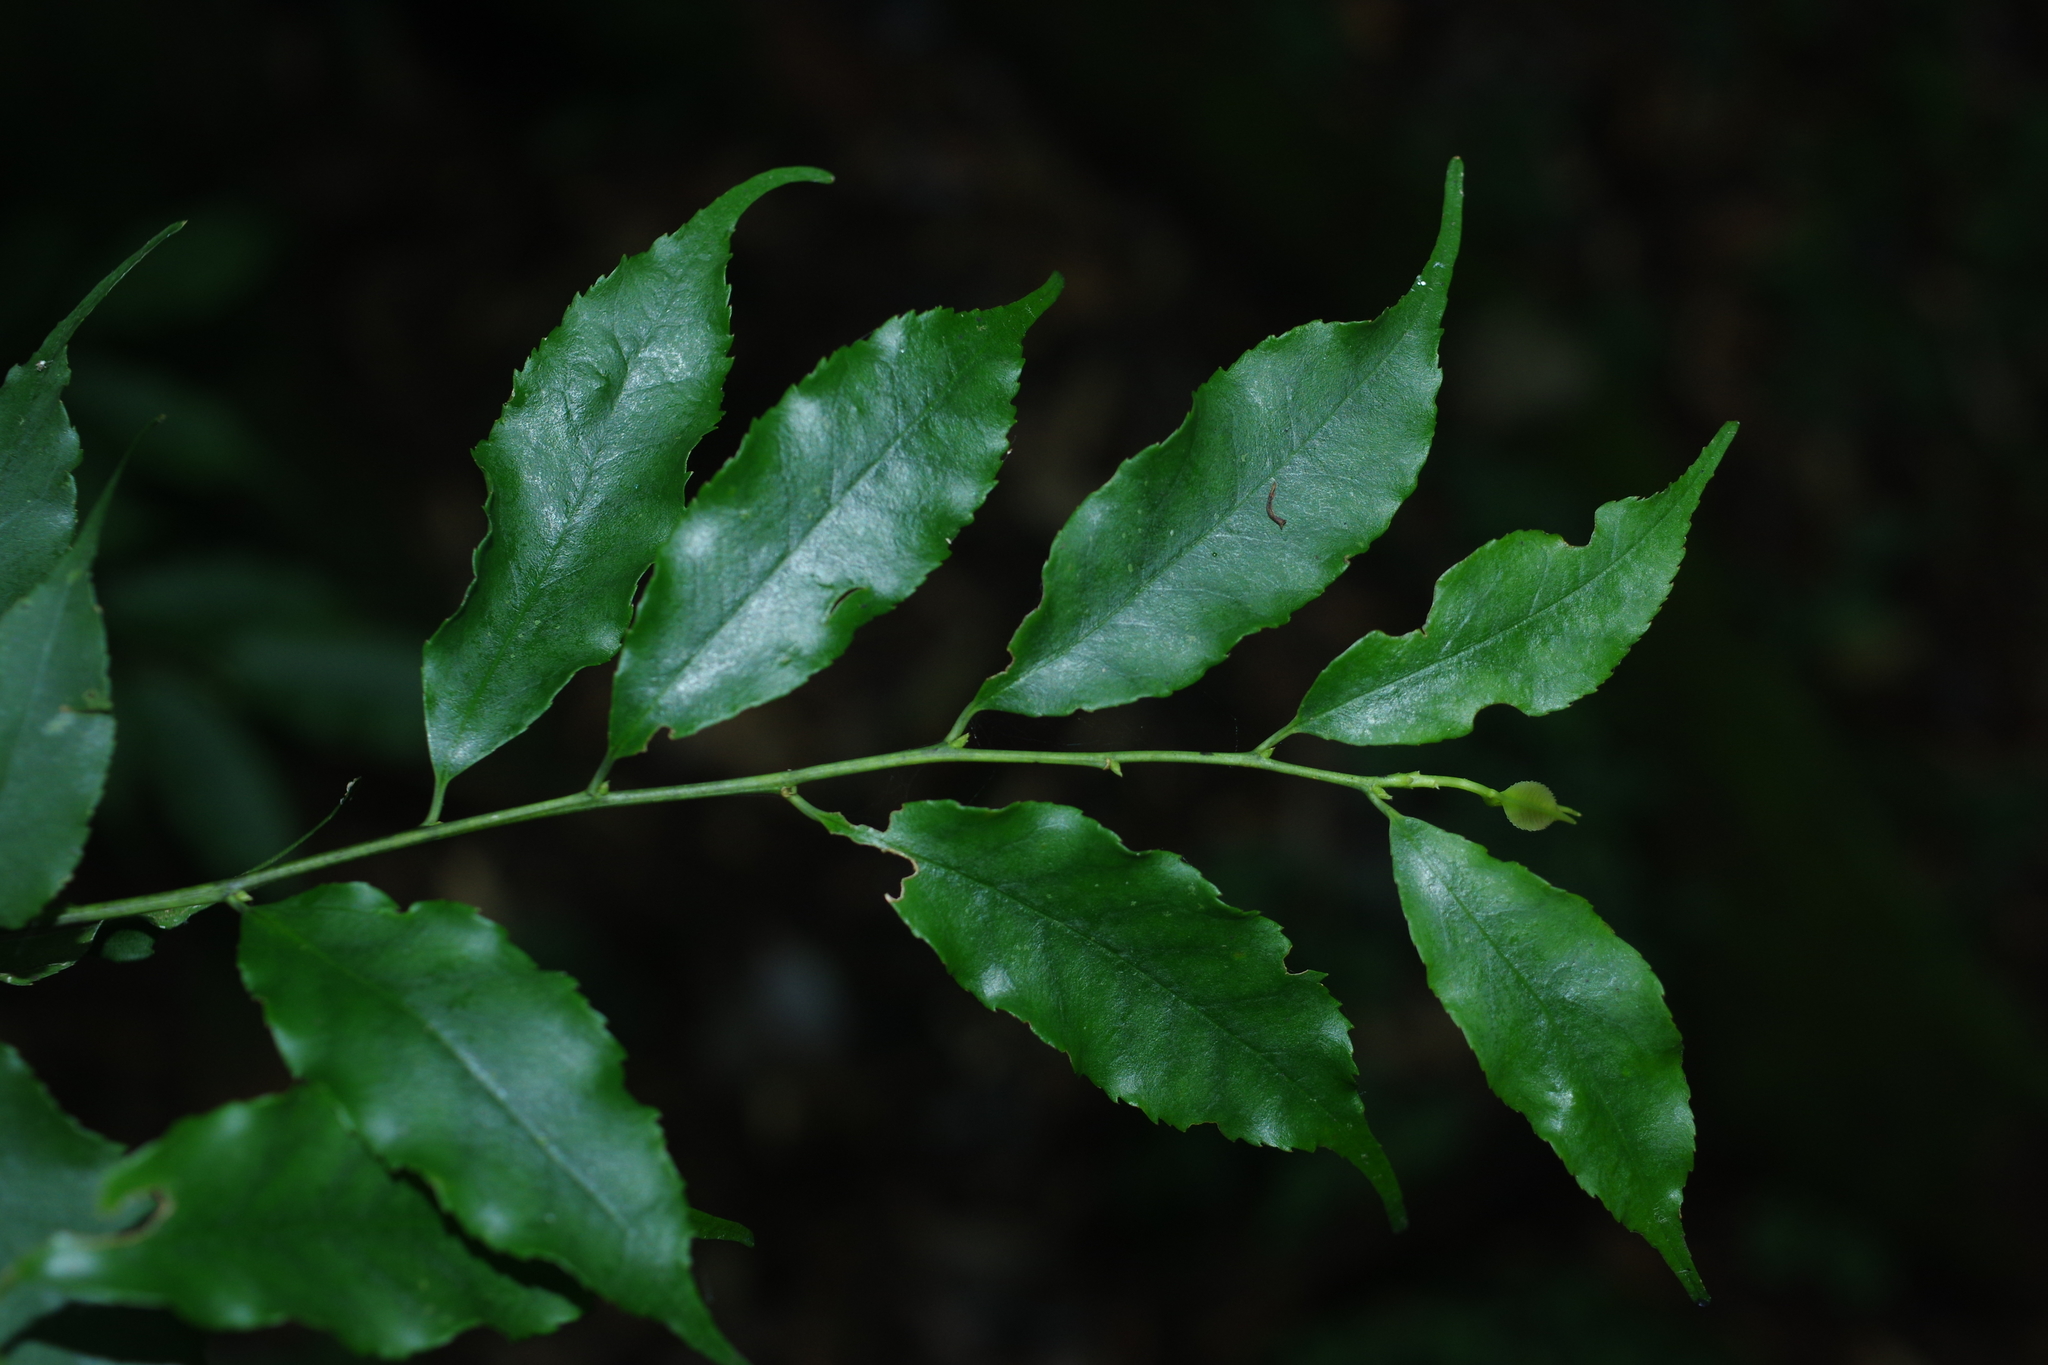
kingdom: Plantae
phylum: Tracheophyta
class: Magnoliopsida
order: Aquifoliales
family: Aquifoliaceae
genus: Ilex
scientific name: Ilex arisanensis
